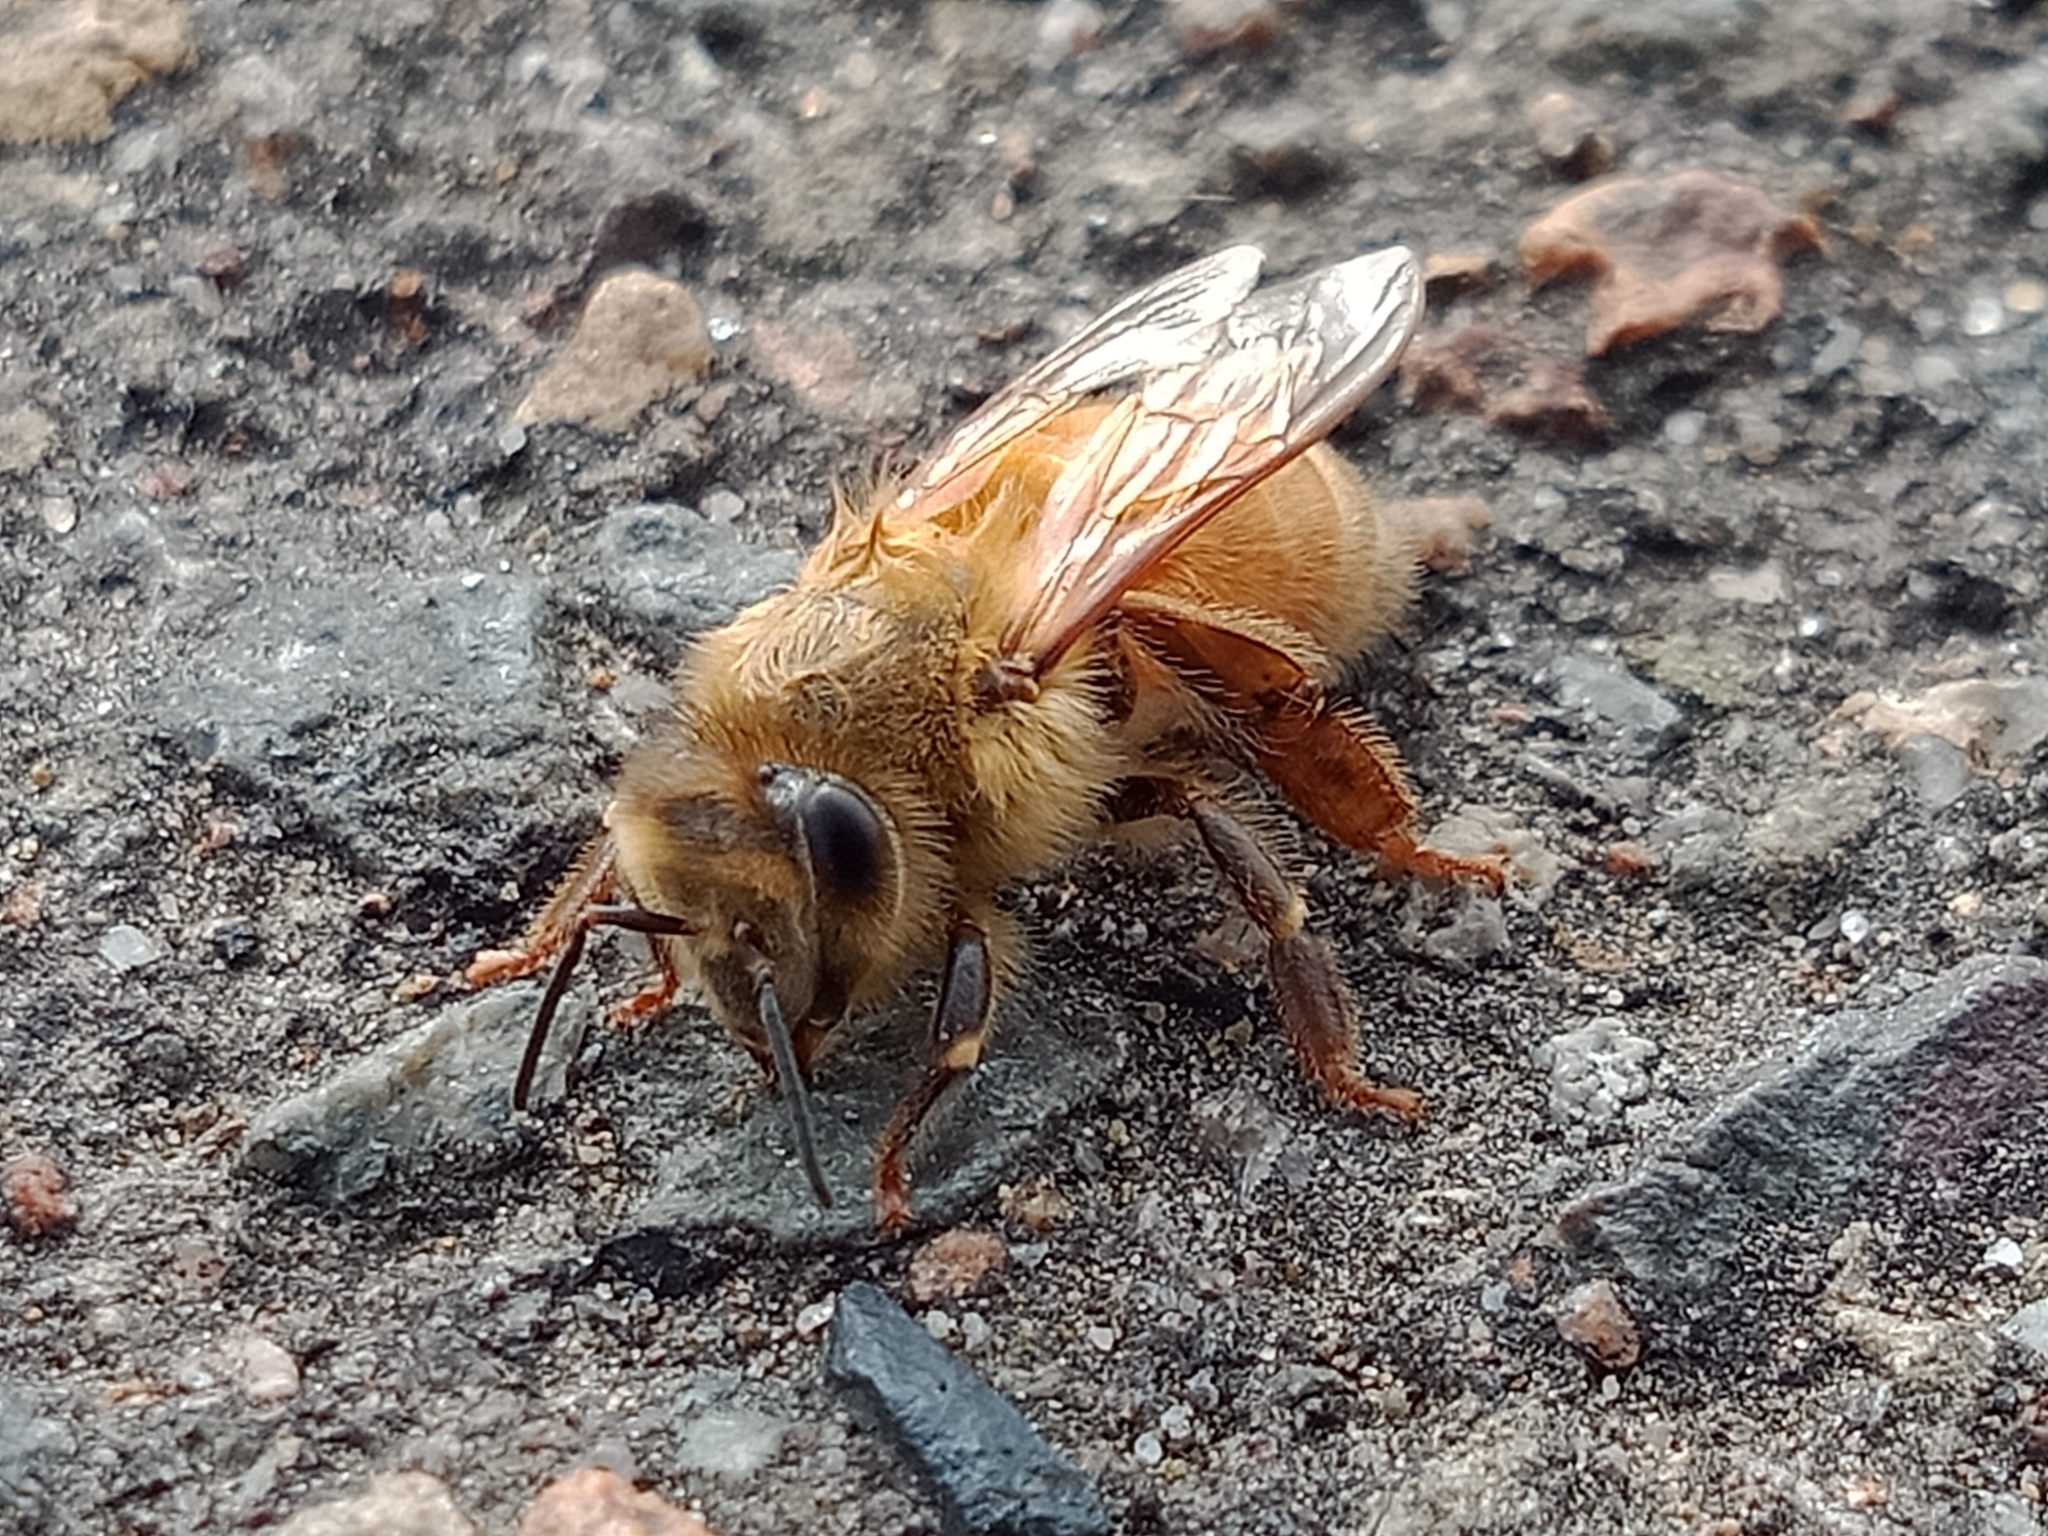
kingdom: Animalia
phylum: Arthropoda
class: Insecta
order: Hymenoptera
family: Apidae
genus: Apis
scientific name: Apis mellifera
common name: Honey bee
